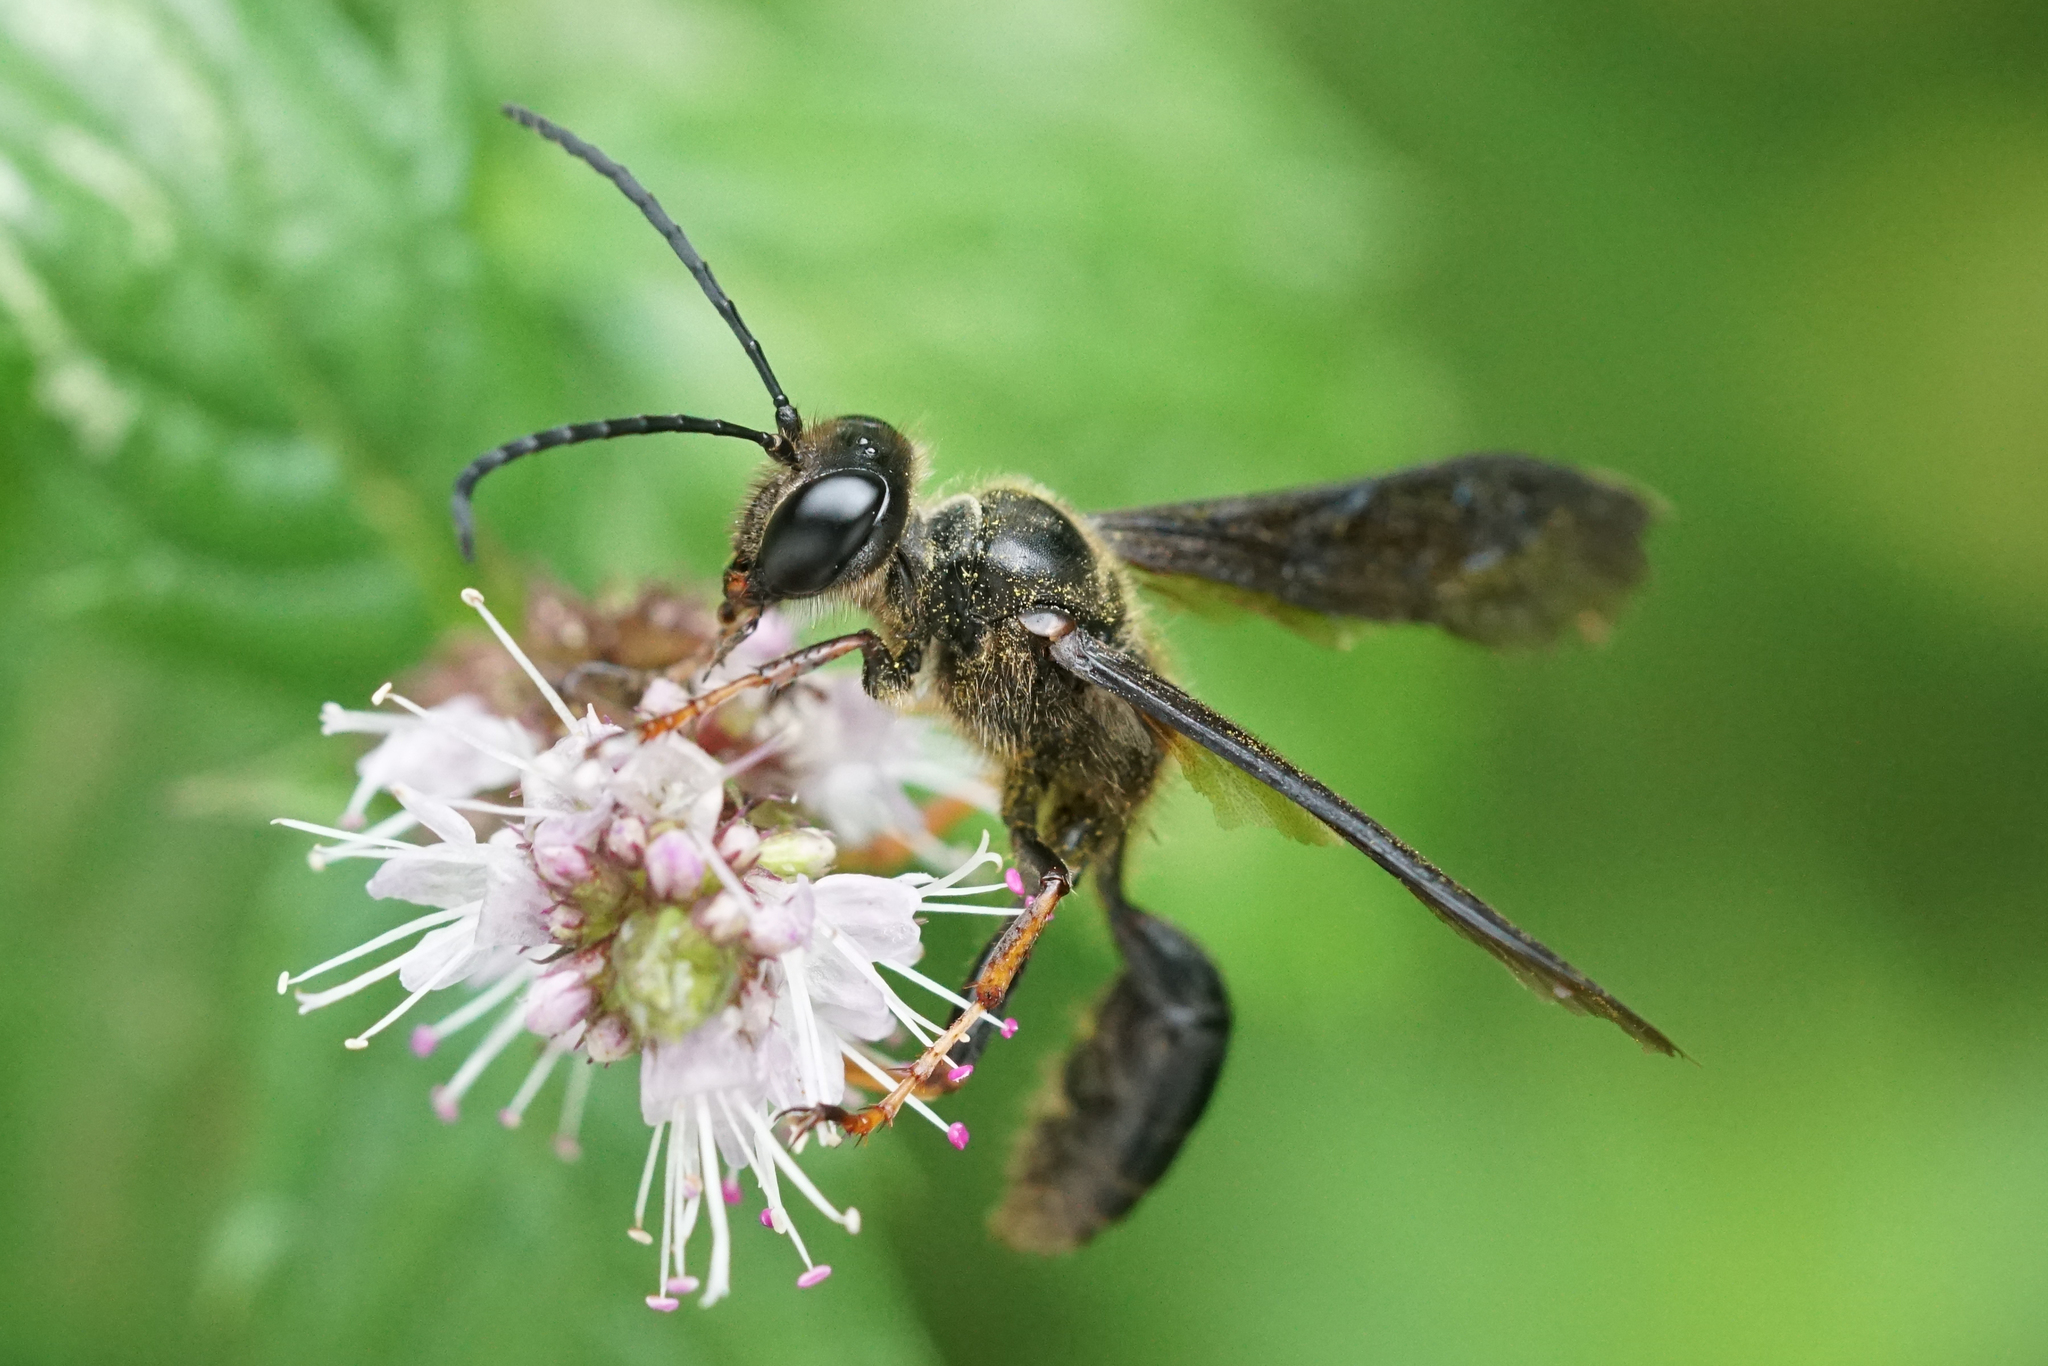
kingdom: Animalia
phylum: Arthropoda
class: Insecta
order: Hymenoptera
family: Sphecidae
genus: Isodontia
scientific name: Isodontia auripes
